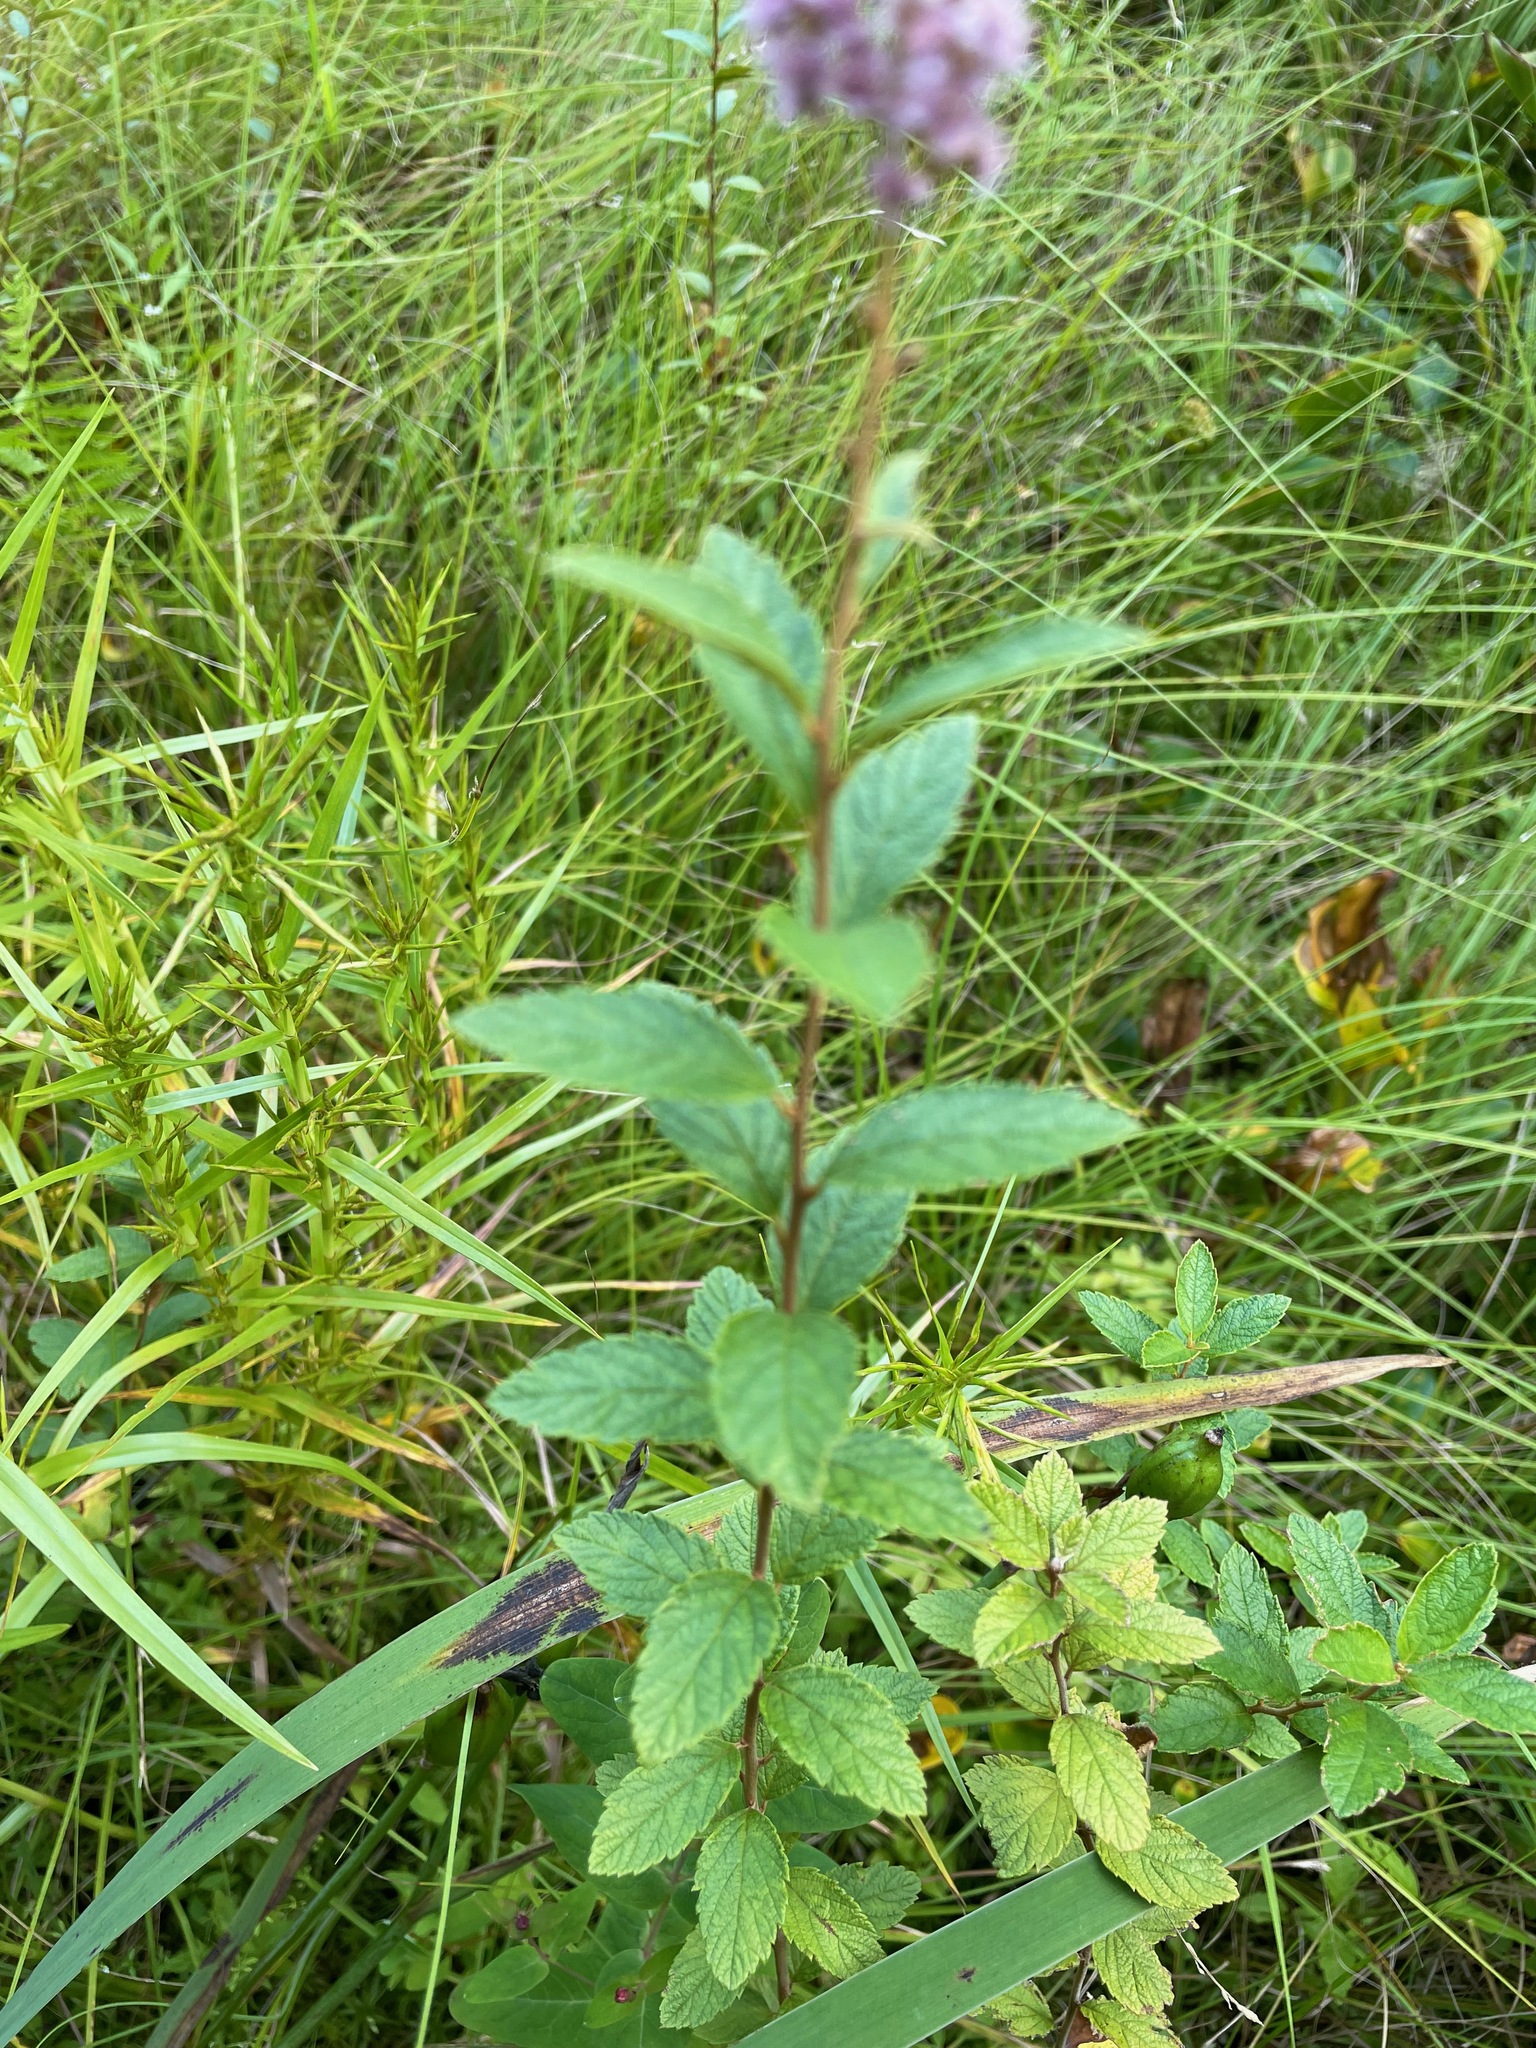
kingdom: Plantae
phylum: Tracheophyta
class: Magnoliopsida
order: Rosales
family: Rosaceae
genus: Spiraea
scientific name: Spiraea tomentosa
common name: Hardhack
